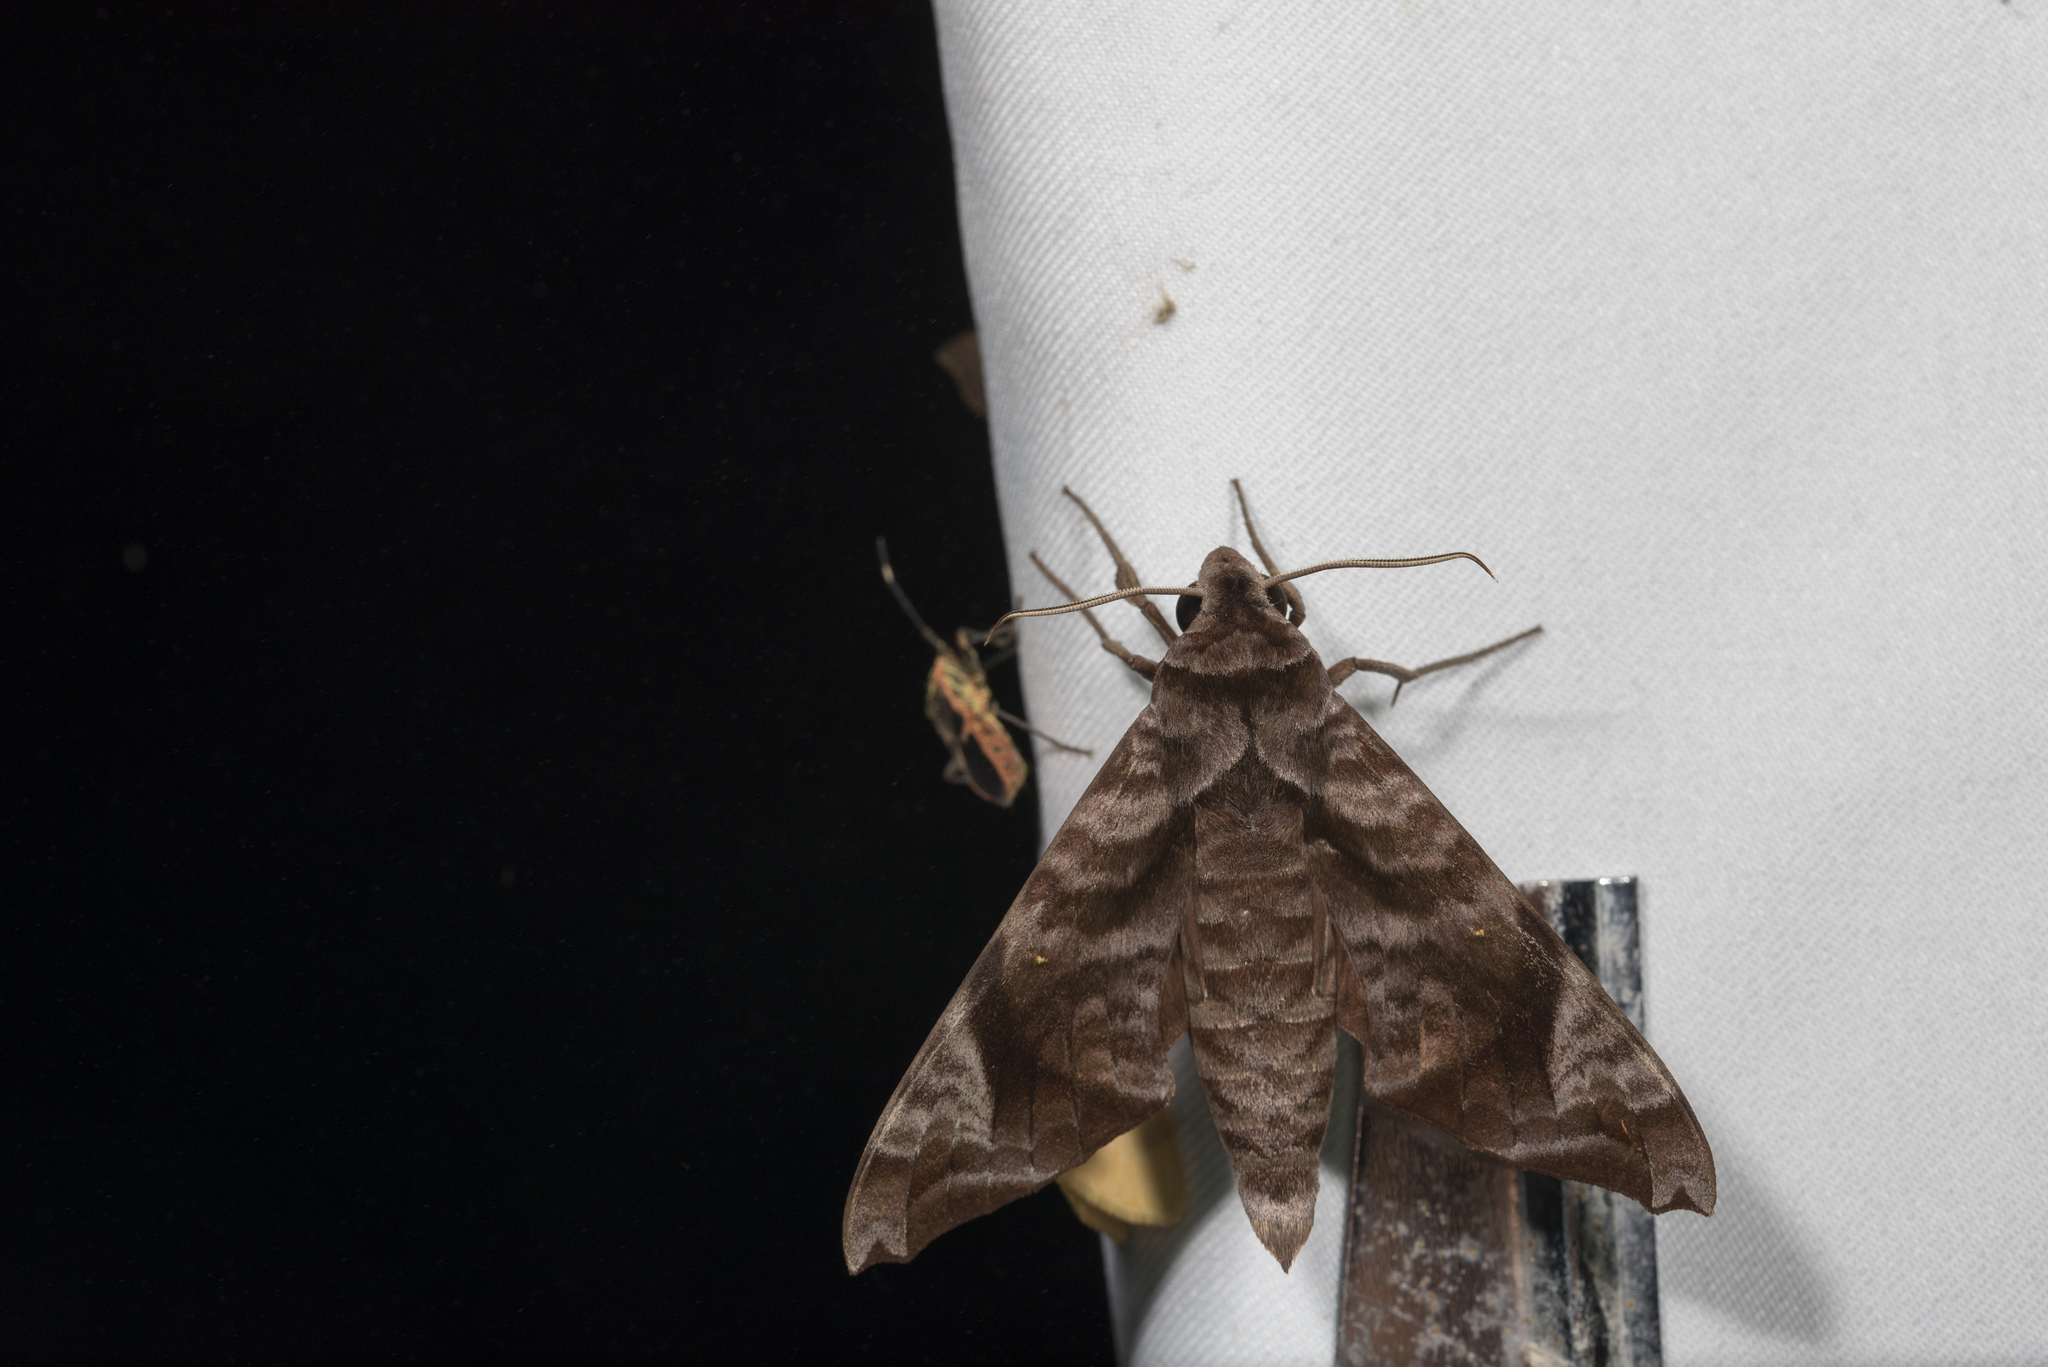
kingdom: Animalia
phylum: Arthropoda
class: Insecta
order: Lepidoptera
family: Sphingidae
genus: Acosmeryx
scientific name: Acosmeryx castanea
